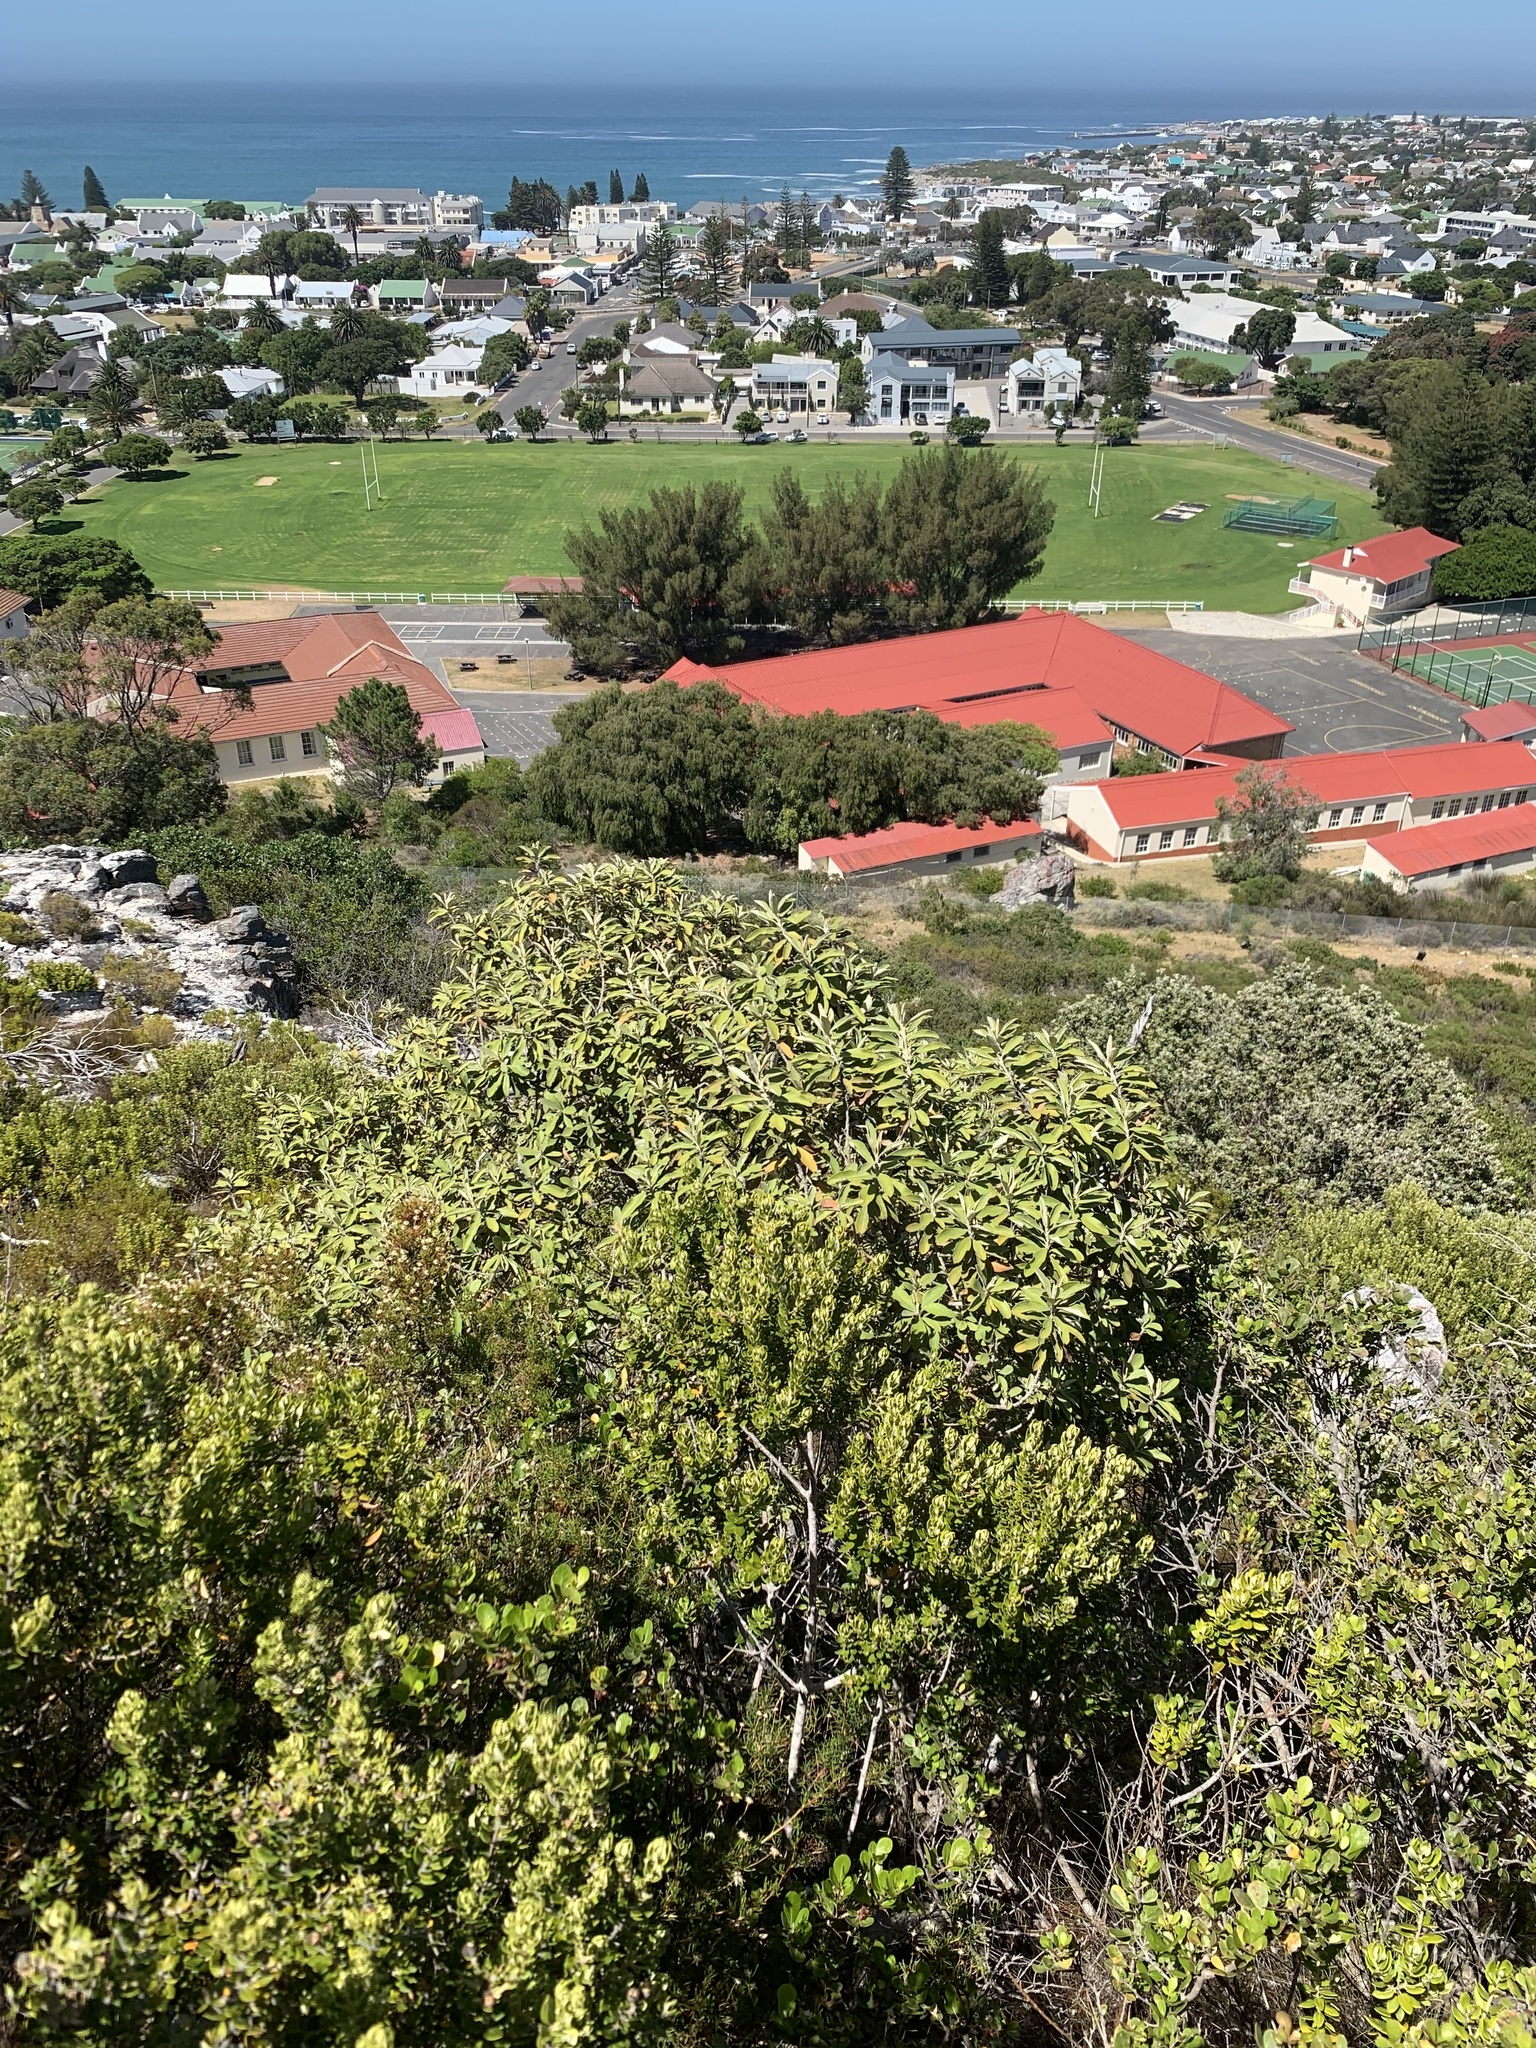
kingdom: Plantae
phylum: Tracheophyta
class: Magnoliopsida
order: Asterales
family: Asteraceae
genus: Tarchonanthus
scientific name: Tarchonanthus littoralis
